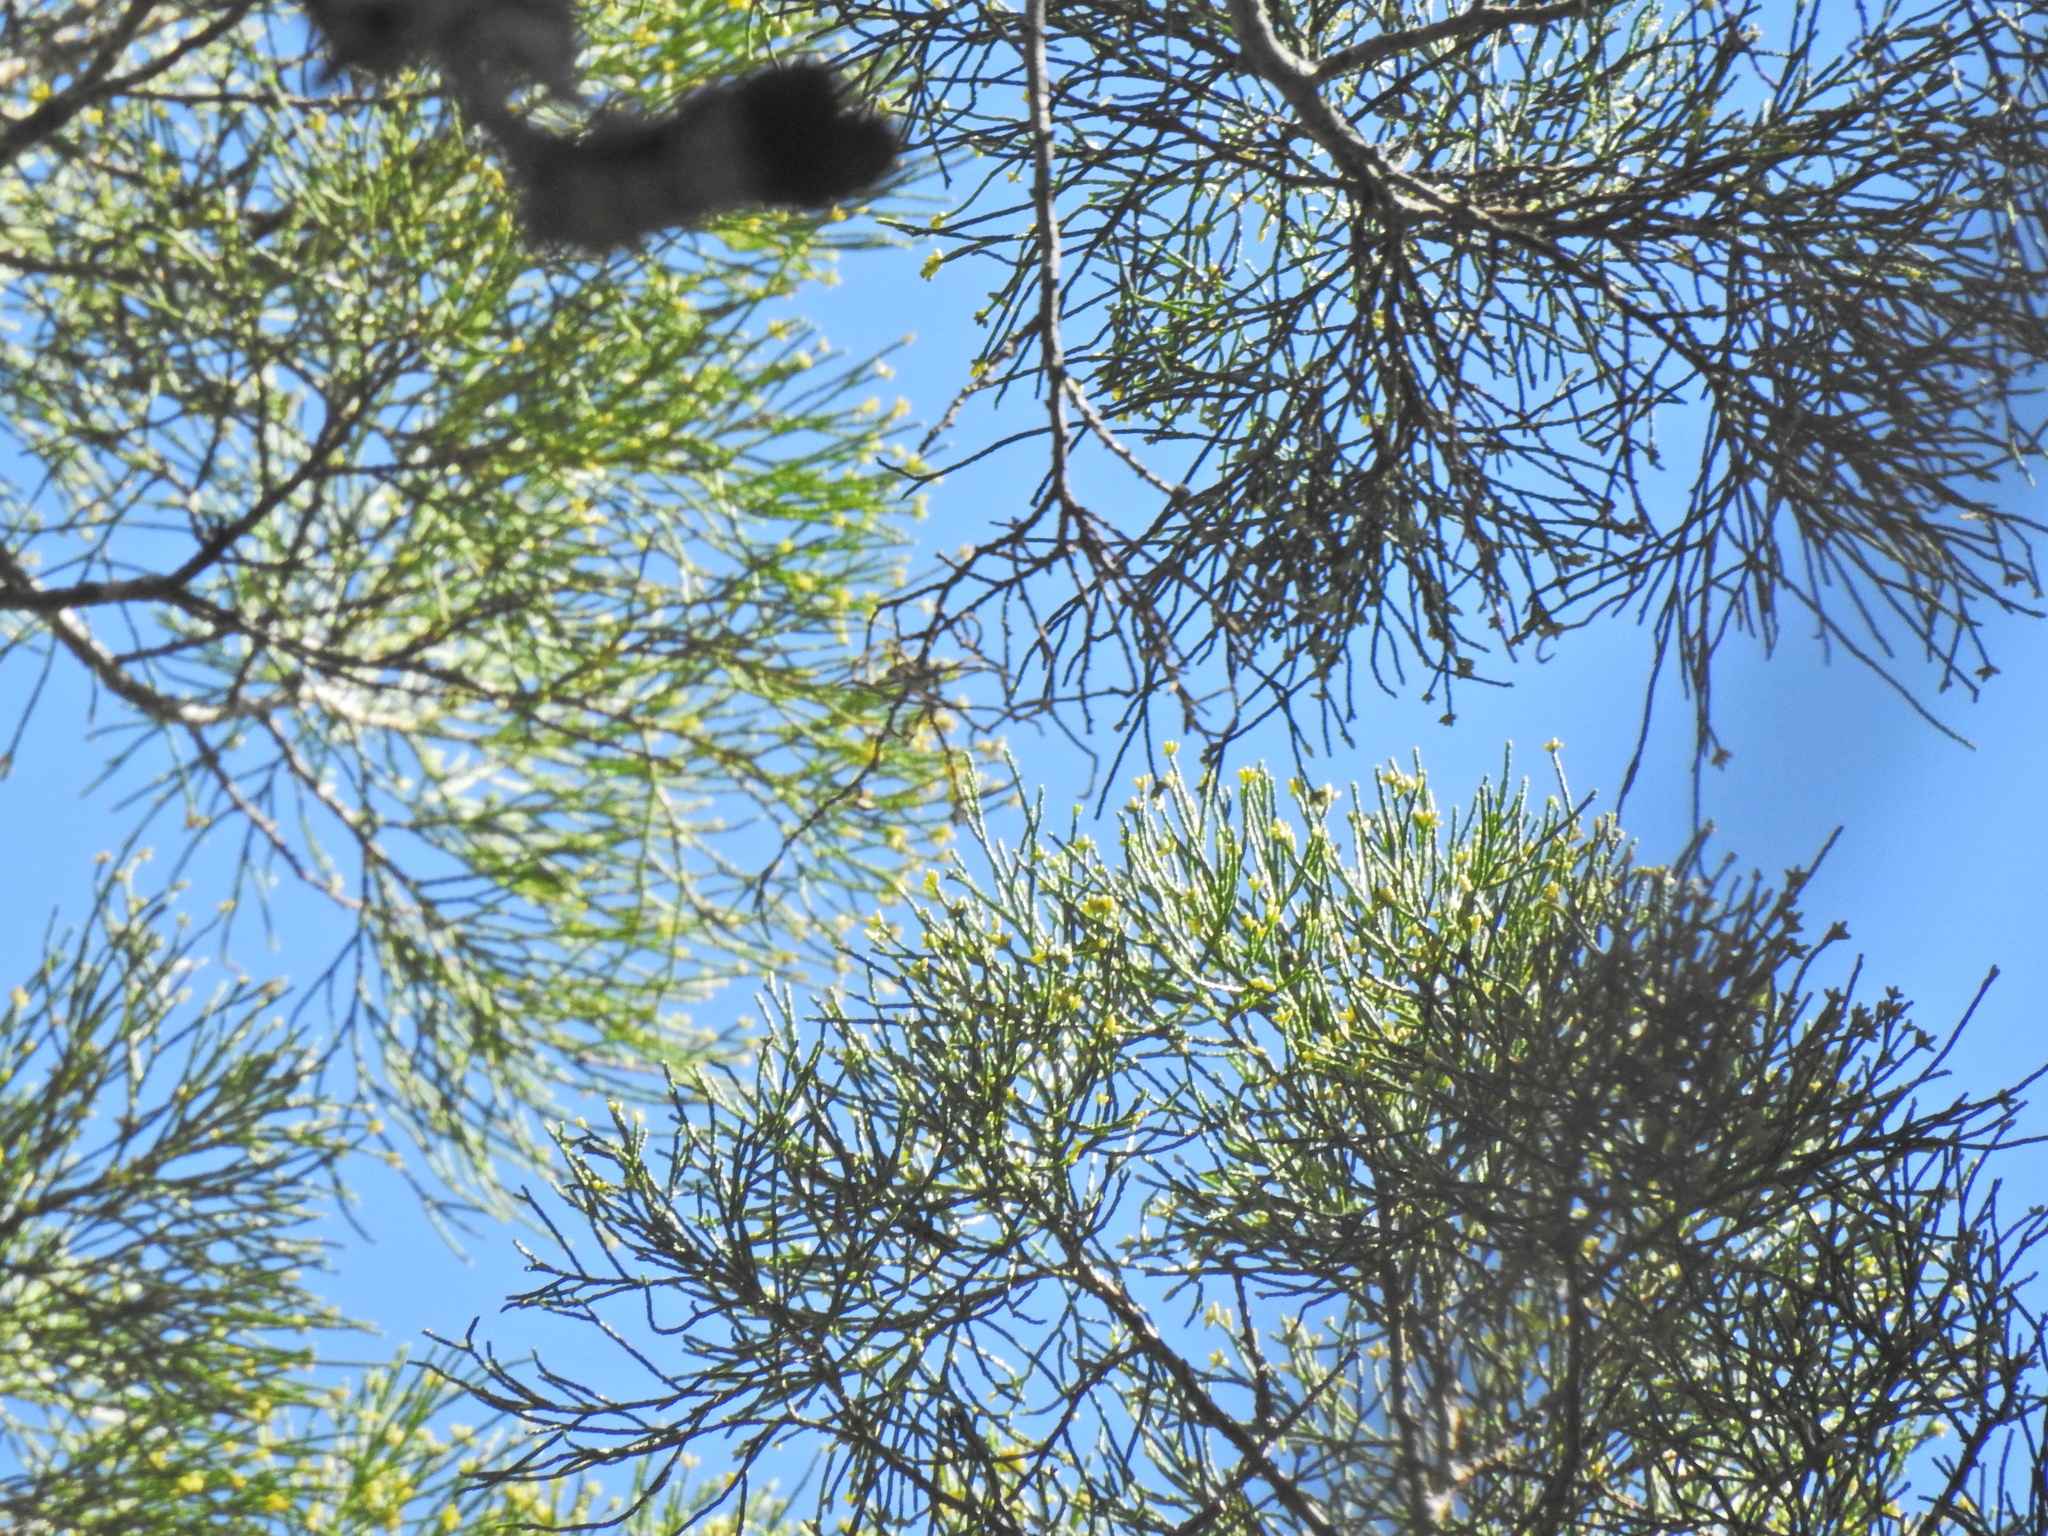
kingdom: Plantae
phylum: Tracheophyta
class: Pinopsida
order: Pinales
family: Cupressaceae
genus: Callitris
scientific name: Callitris columellaris
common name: White cypress-pine
